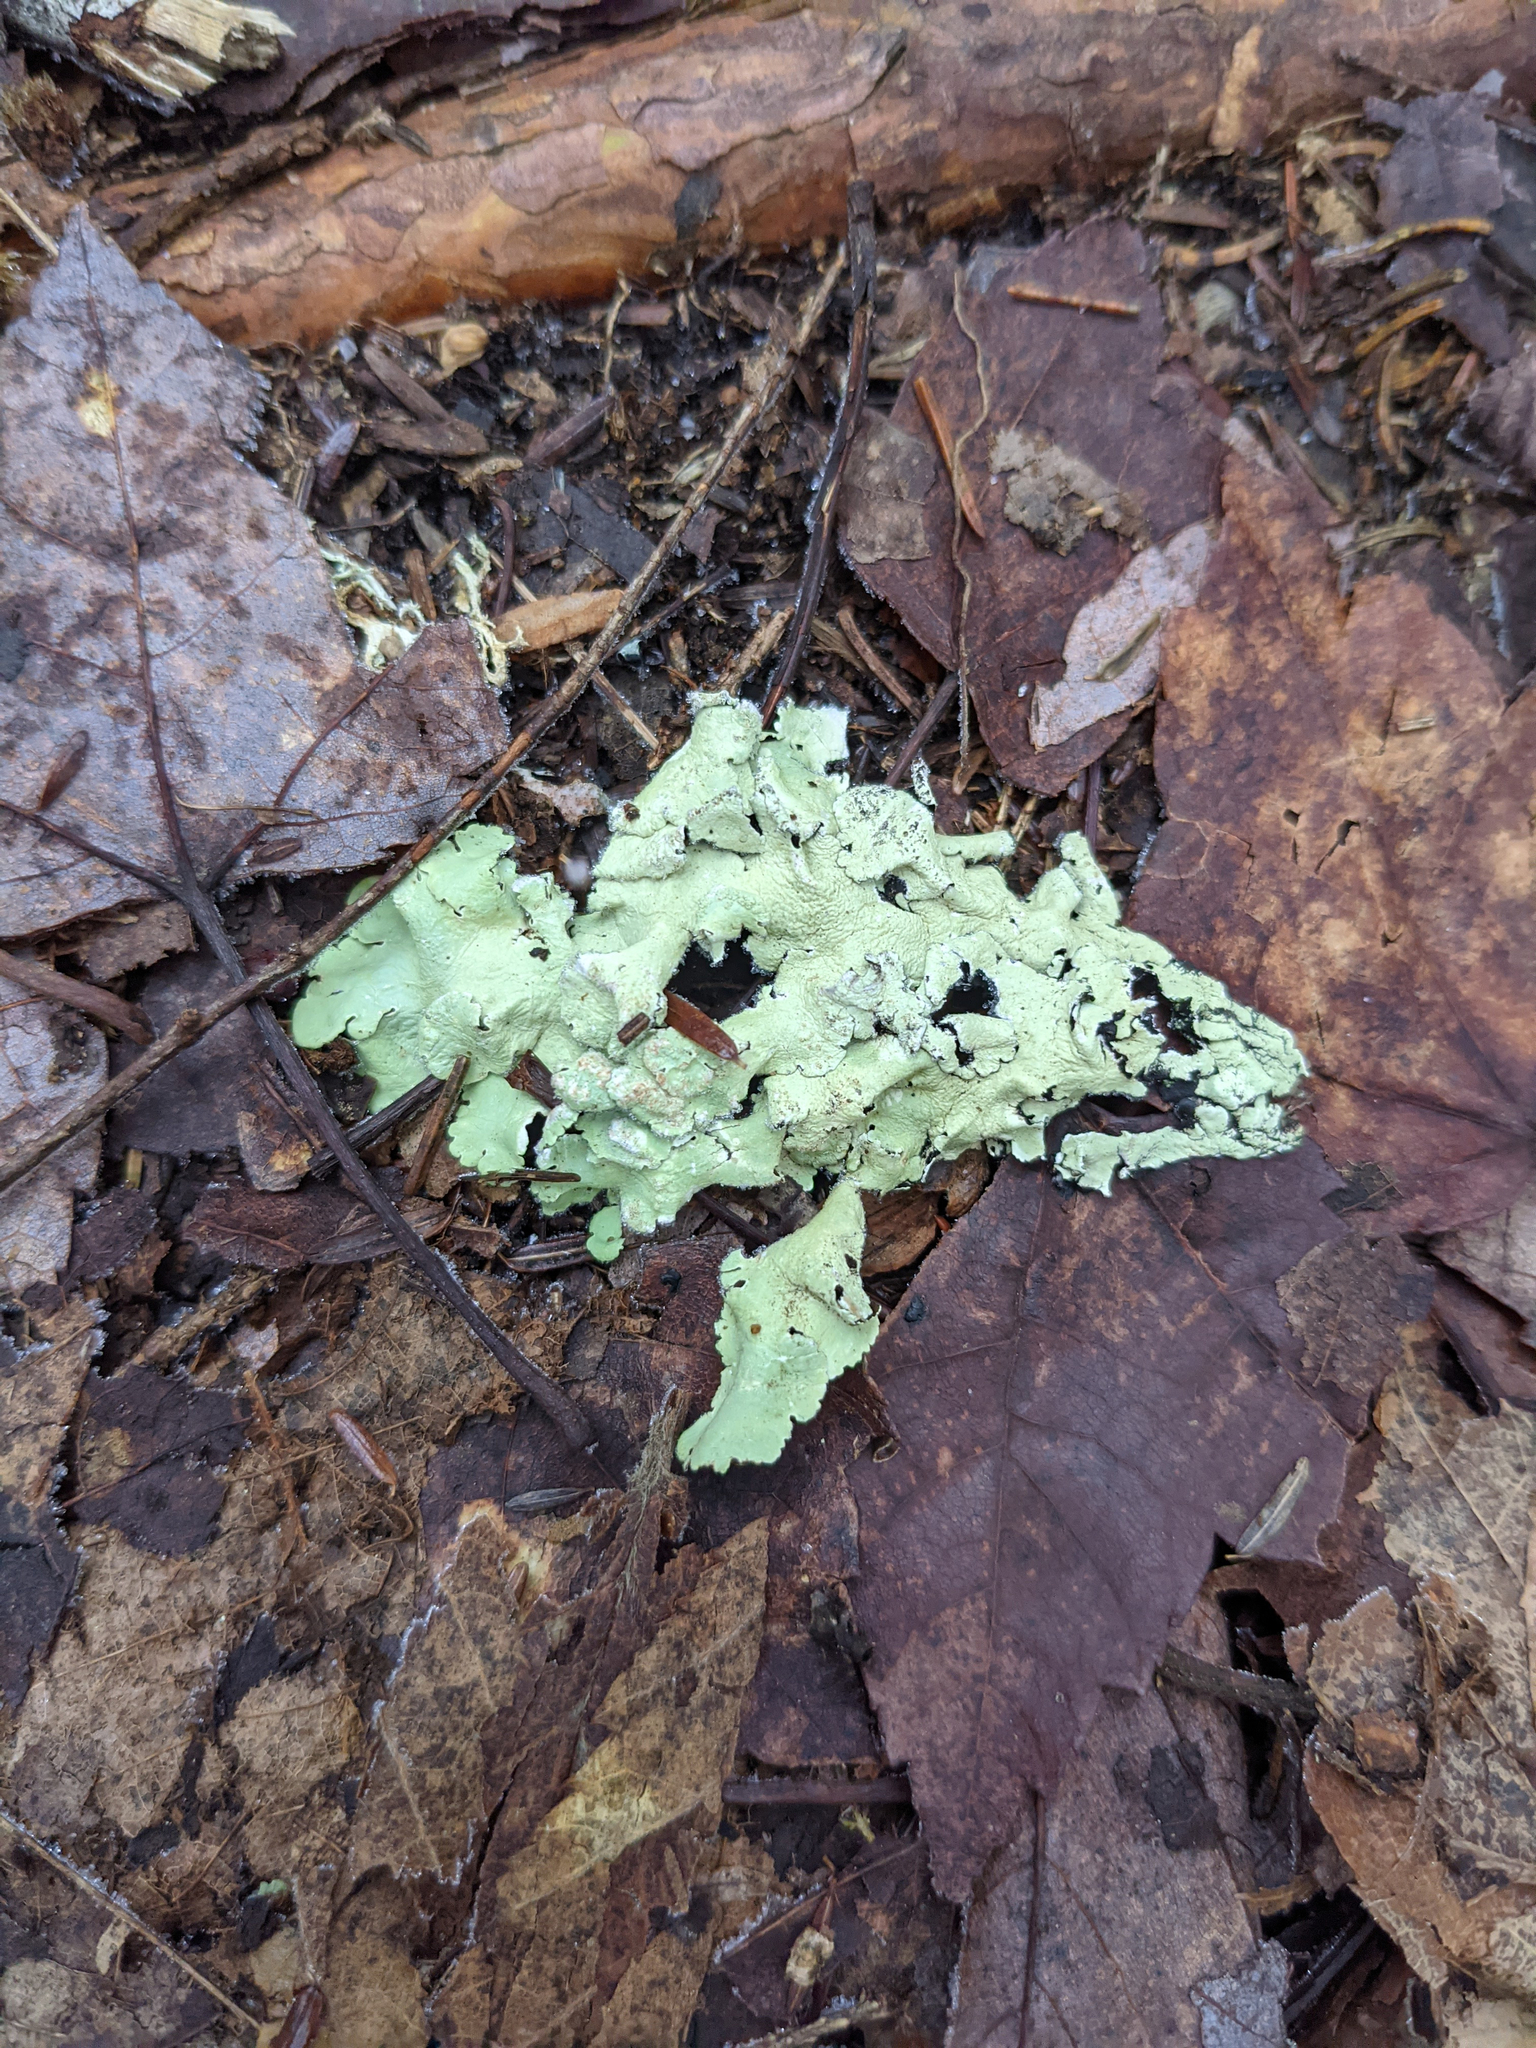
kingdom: Fungi
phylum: Ascomycota
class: Lecanoromycetes
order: Lecanorales
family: Parmeliaceae
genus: Flavoparmelia
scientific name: Flavoparmelia caperata
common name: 40-mile per hour lichen
